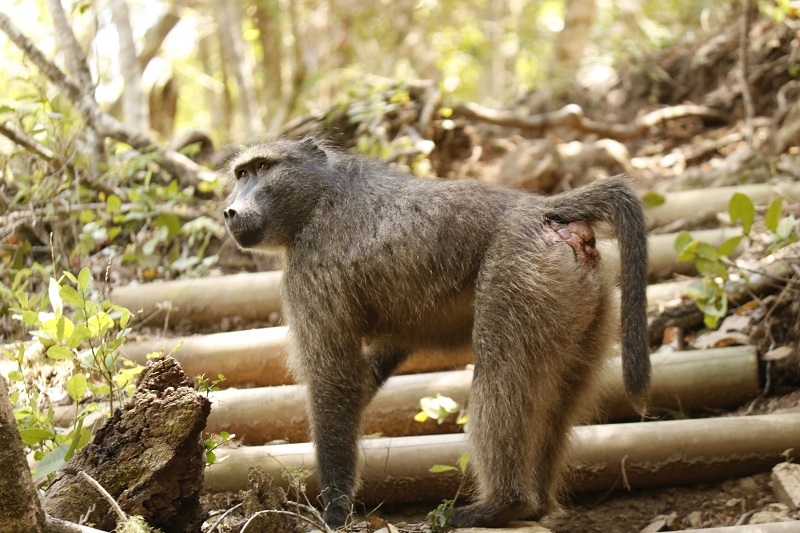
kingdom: Animalia
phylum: Chordata
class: Mammalia
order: Primates
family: Cercopithecidae
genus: Papio
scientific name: Papio ursinus
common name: Chacma baboon
